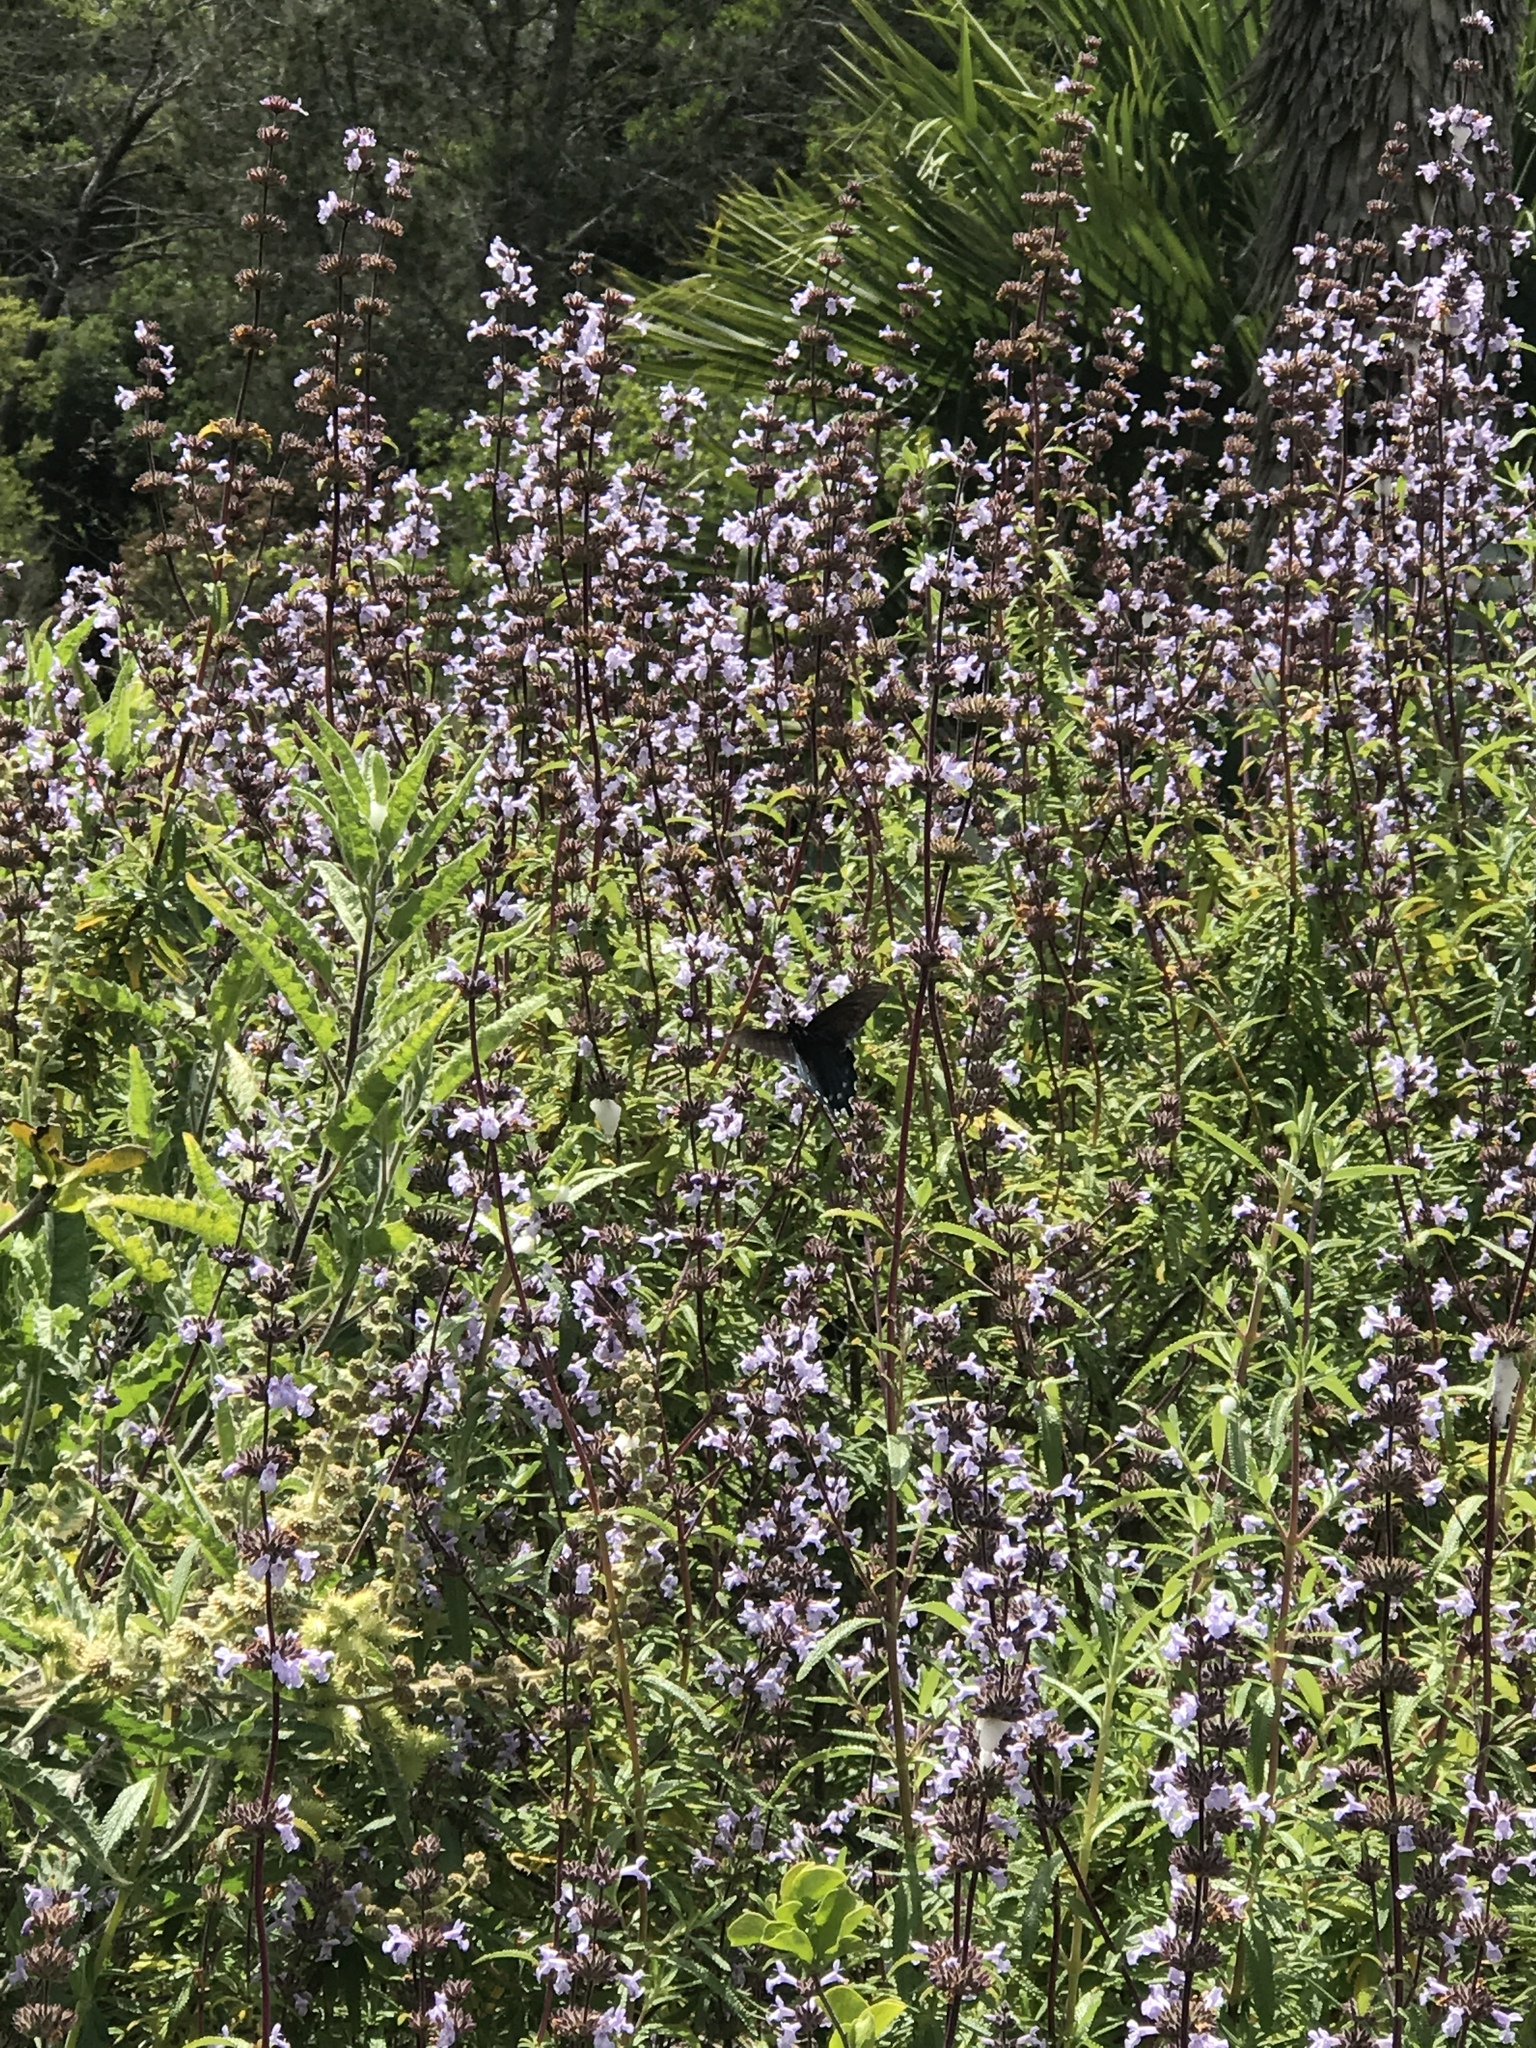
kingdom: Animalia
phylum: Arthropoda
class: Insecta
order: Lepidoptera
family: Papilionidae
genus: Battus
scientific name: Battus philenor
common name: Pipevine swallowtail
